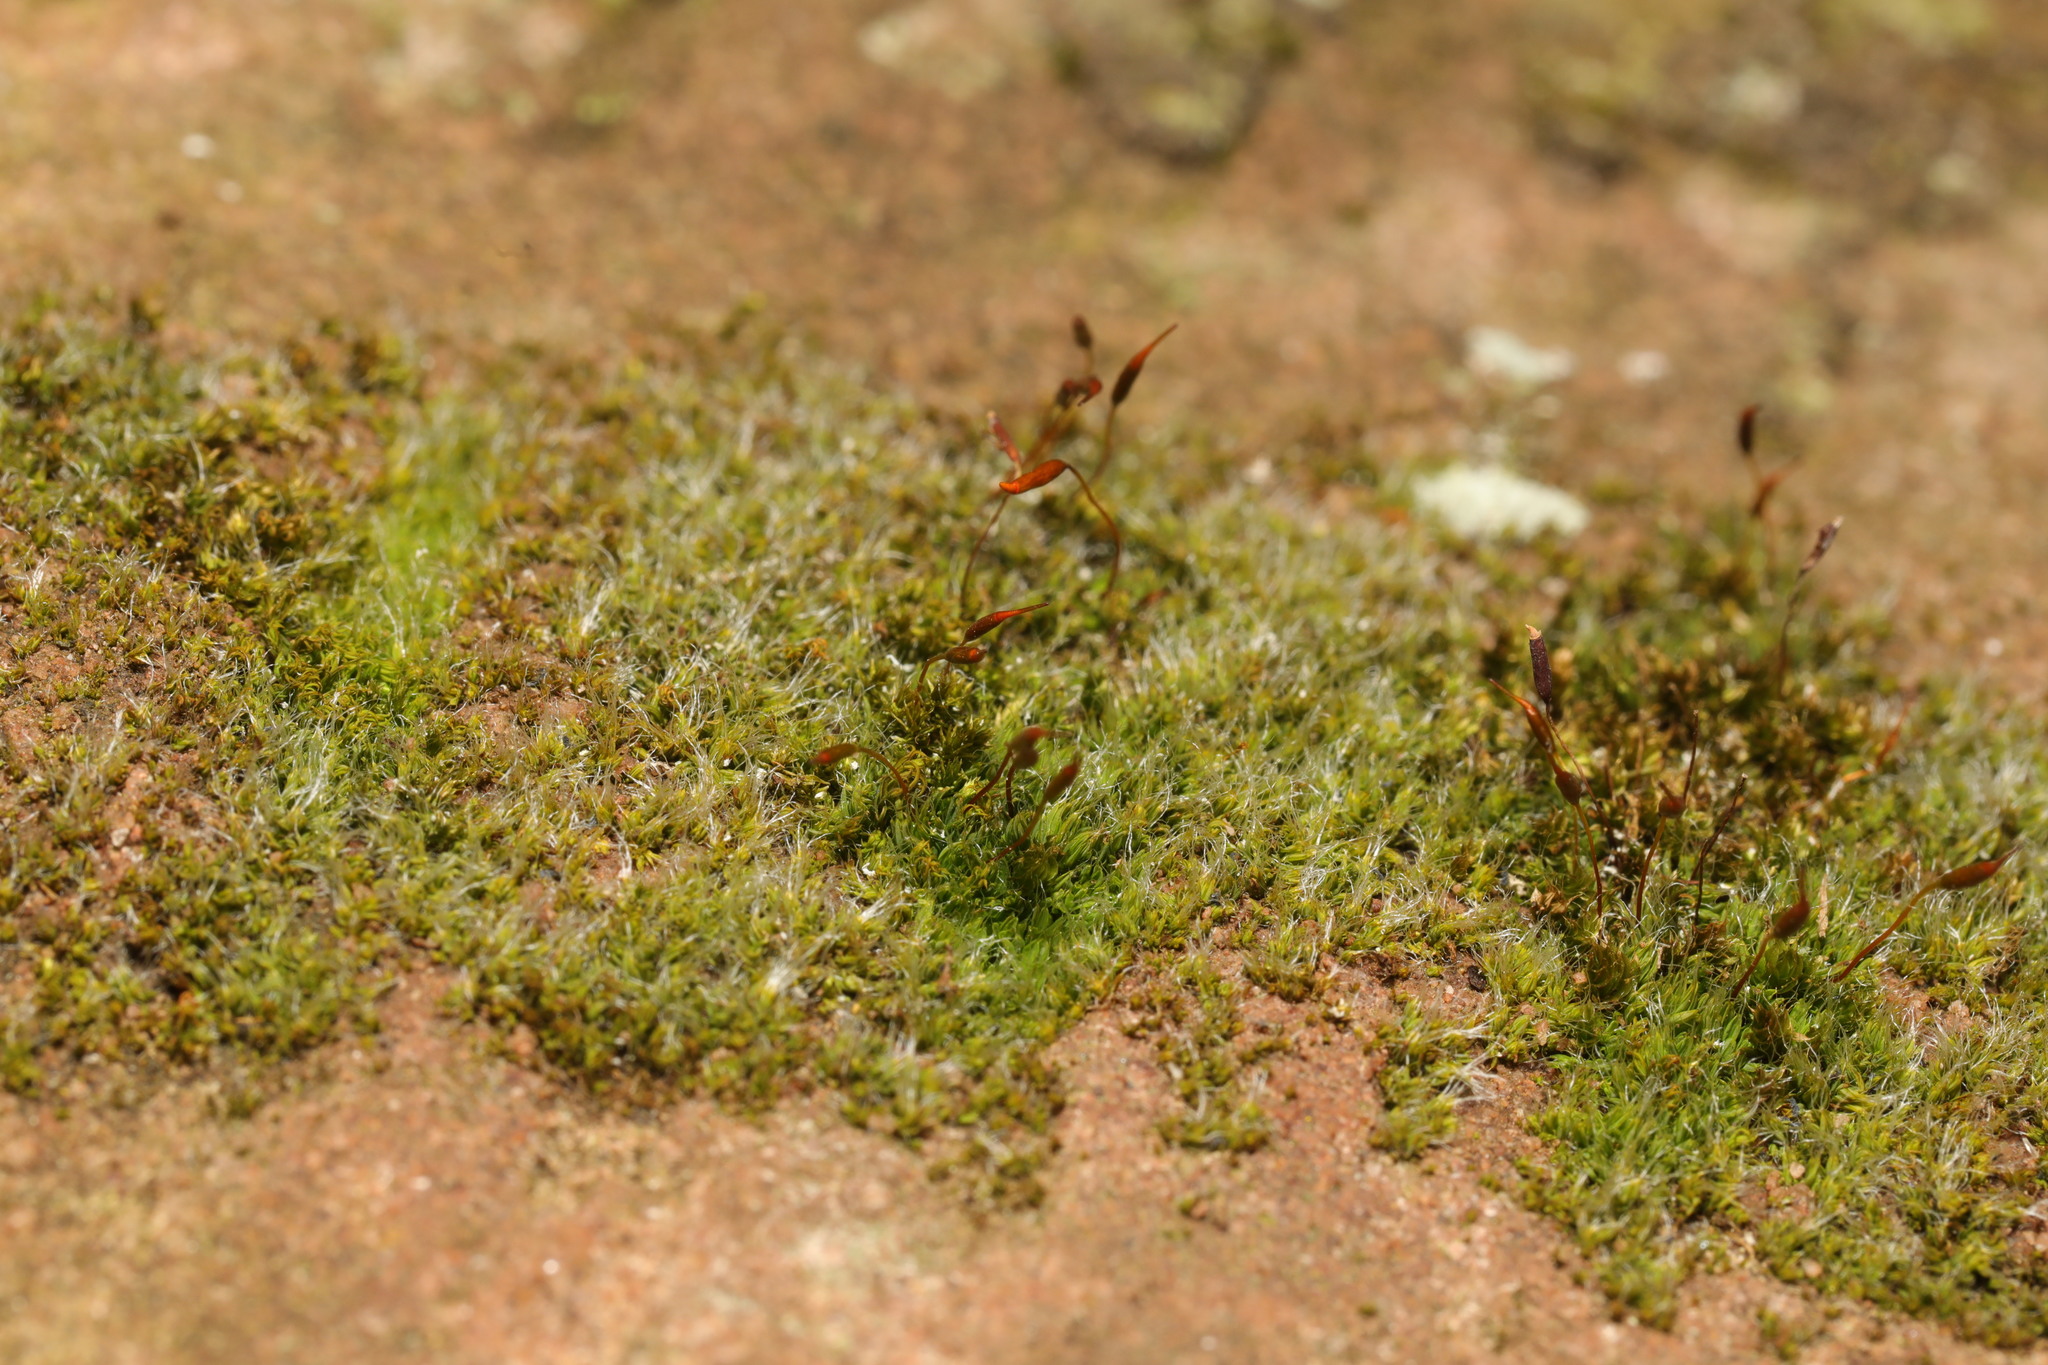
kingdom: Plantae
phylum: Bryophyta
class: Bryopsida
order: Pottiales
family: Pottiaceae
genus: Tortula
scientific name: Tortula muralis
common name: Wall screw-moss
